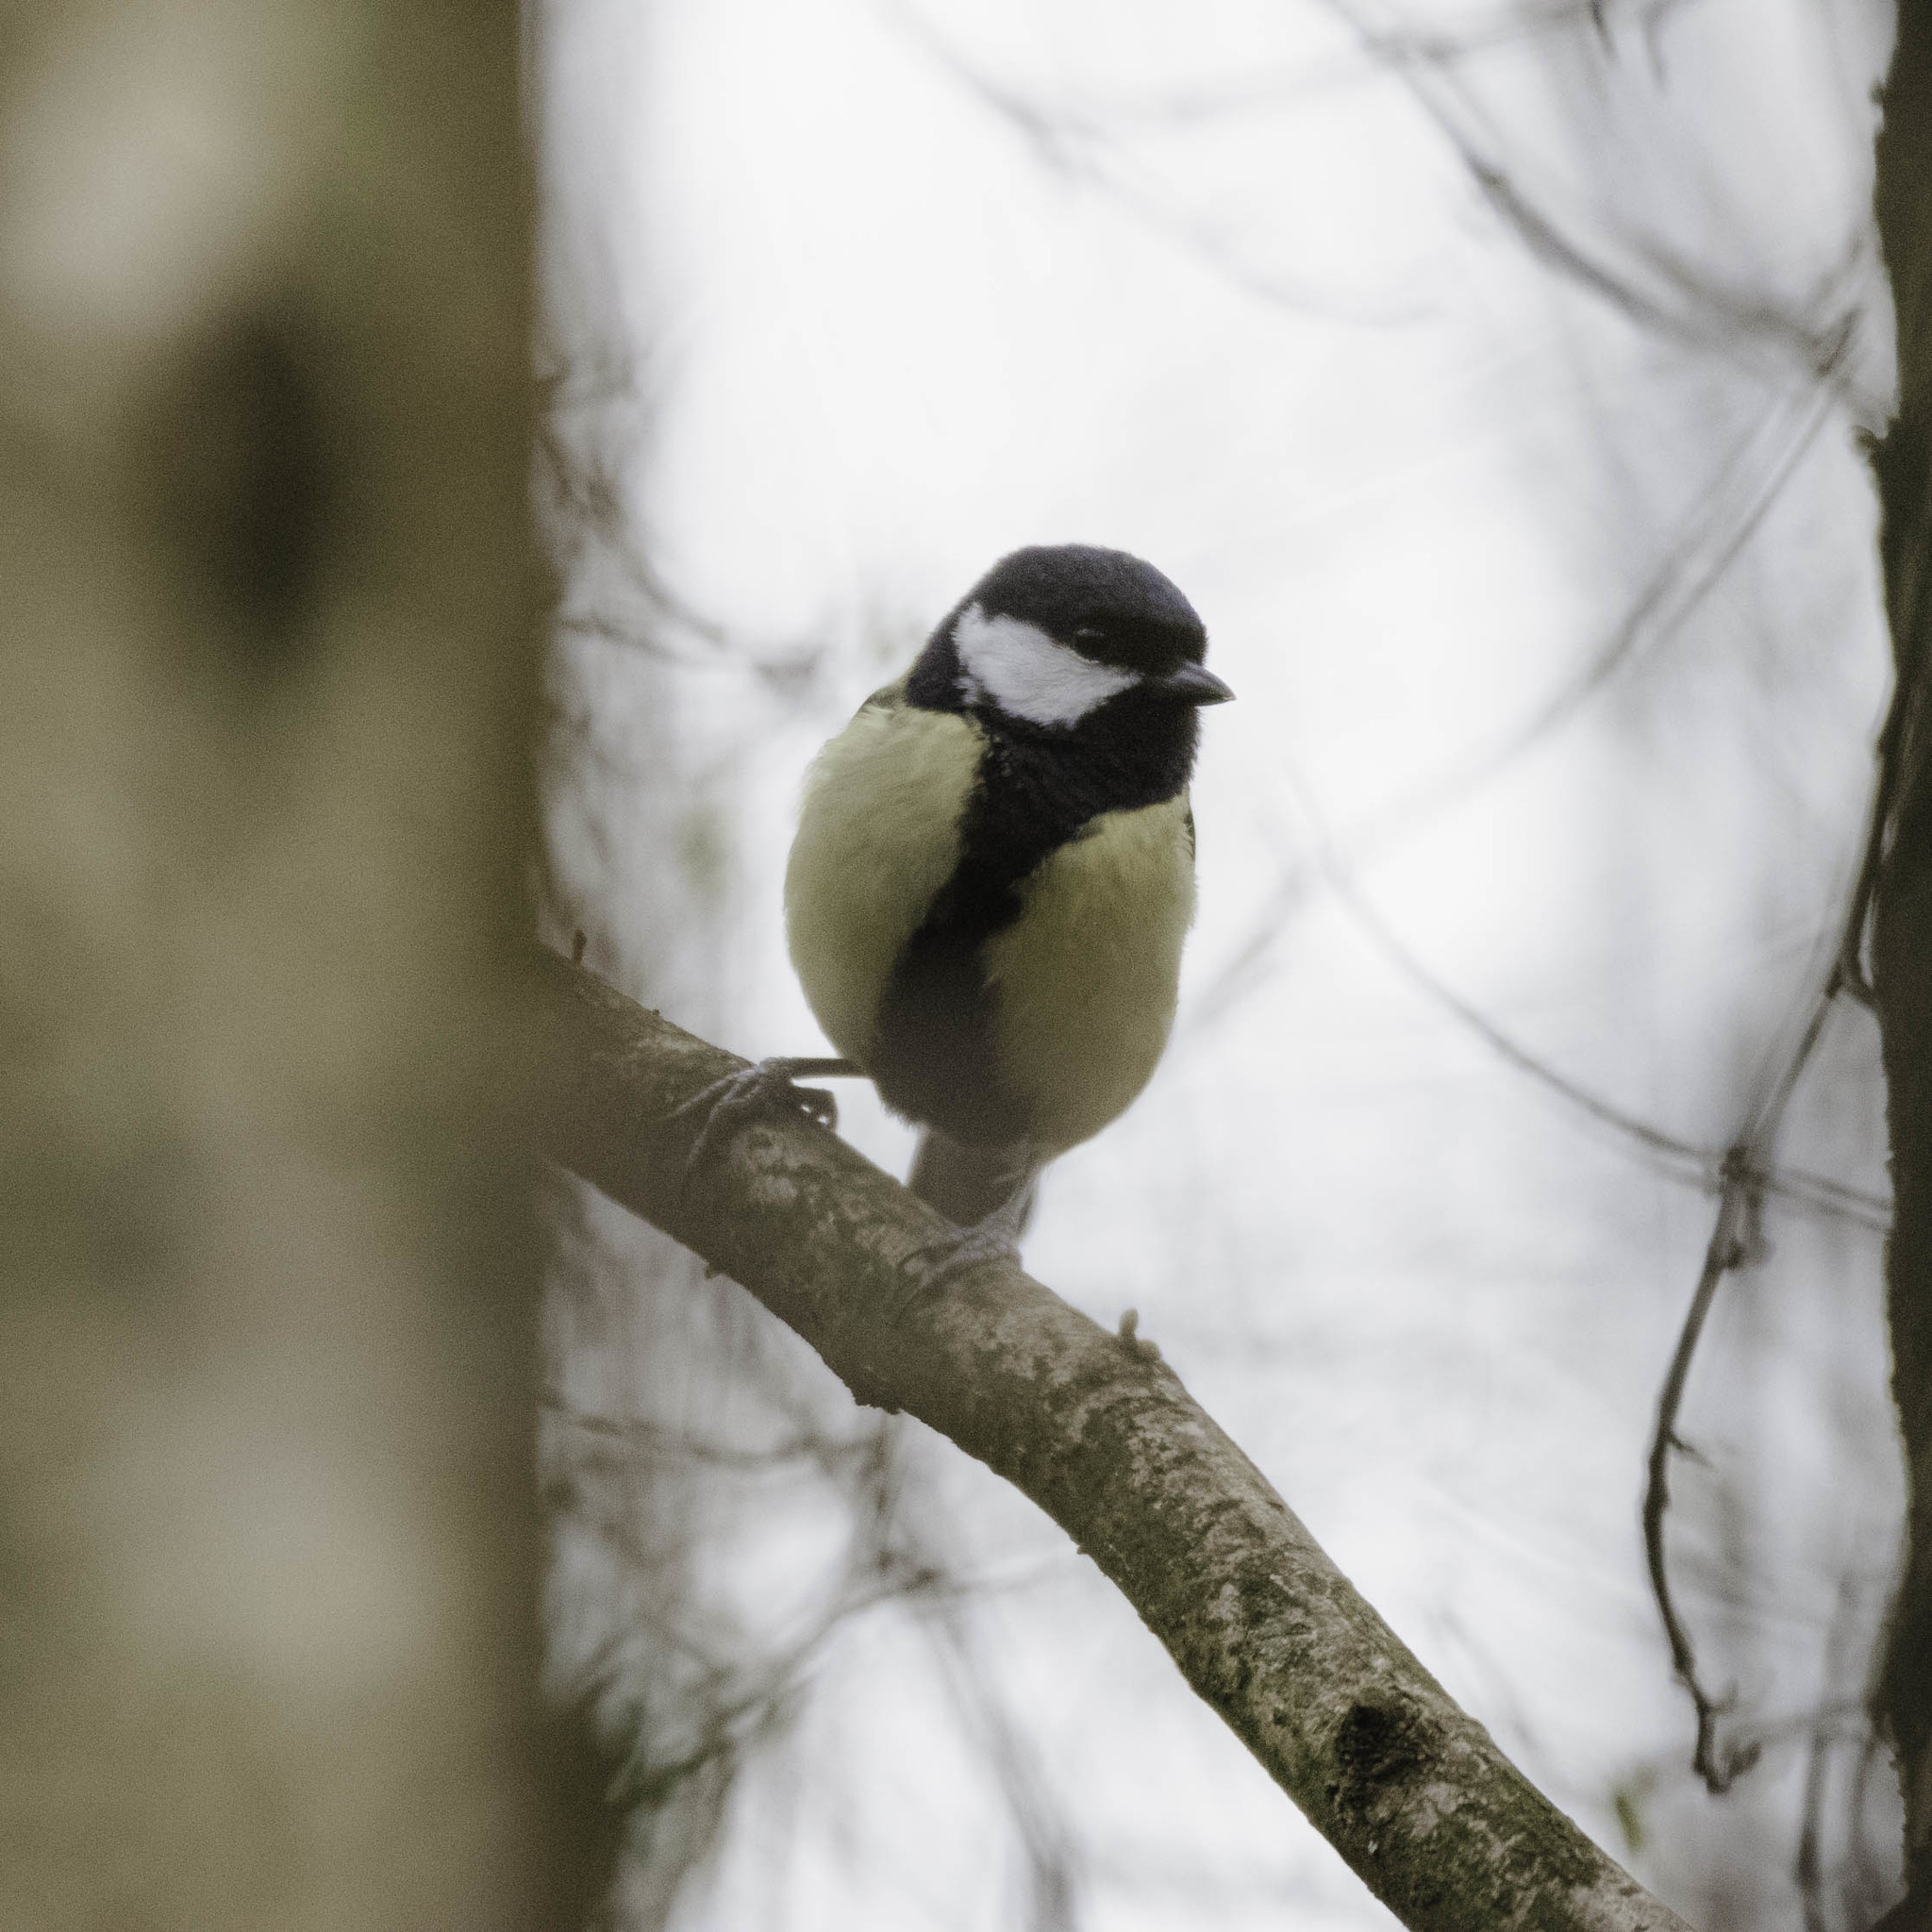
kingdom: Animalia
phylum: Chordata
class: Aves
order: Passeriformes
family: Paridae
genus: Parus
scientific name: Parus major
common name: Great tit
